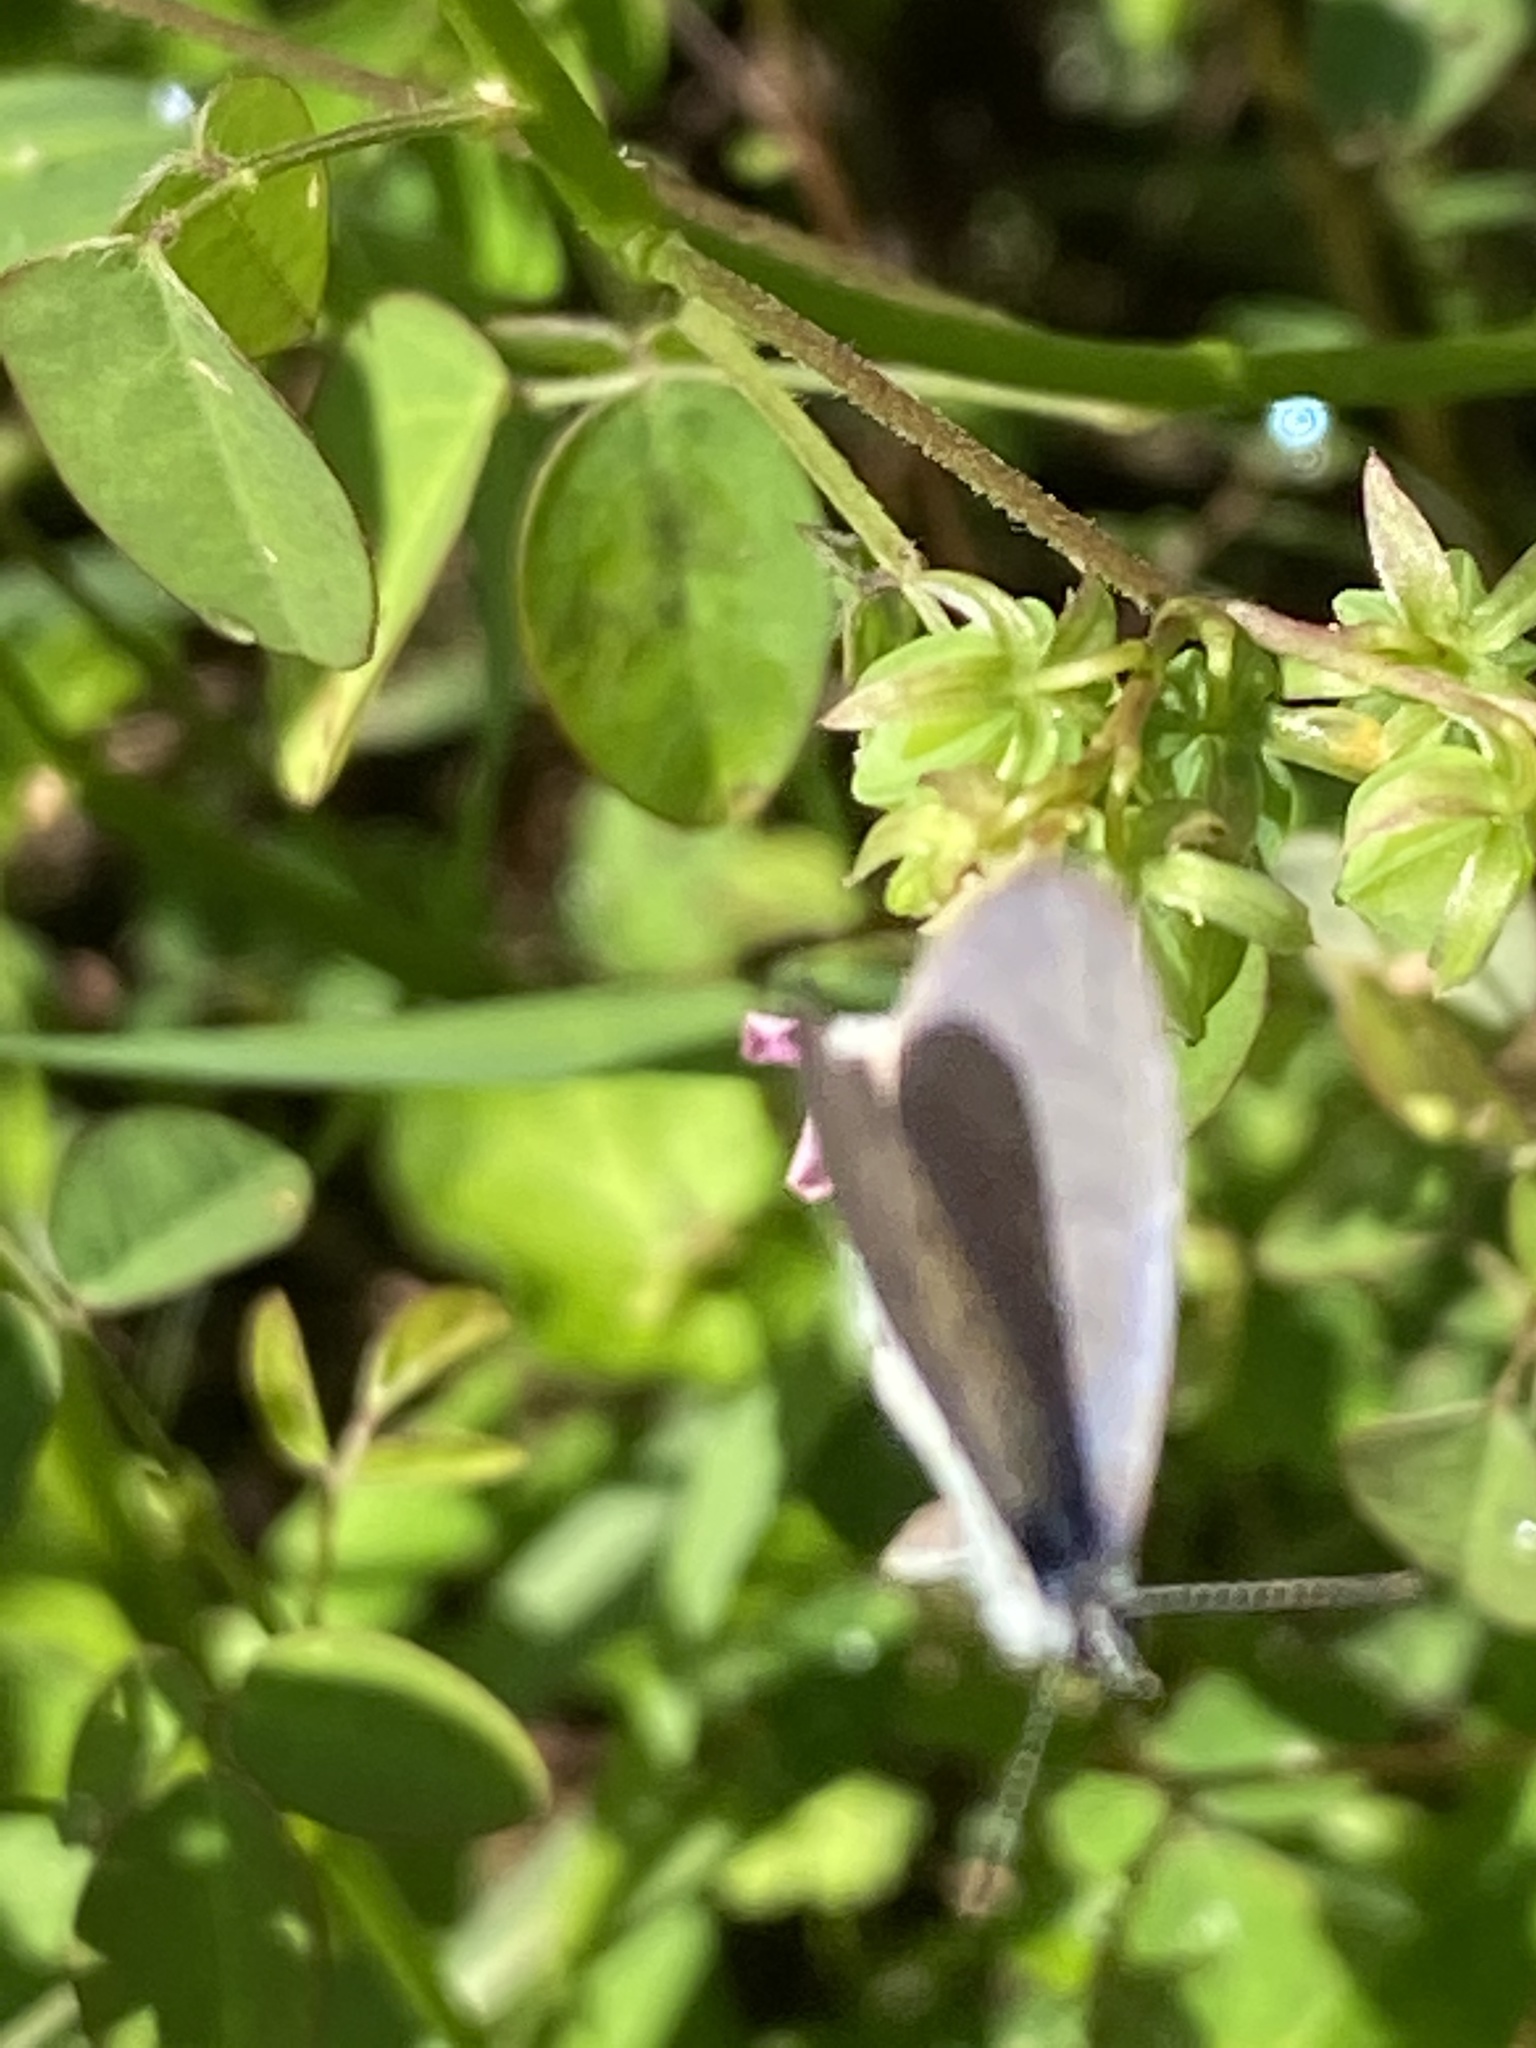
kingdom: Animalia
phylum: Arthropoda
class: Insecta
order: Lepidoptera
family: Lycaenidae
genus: Leptotes
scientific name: Leptotes cassius
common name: Cassius blue
